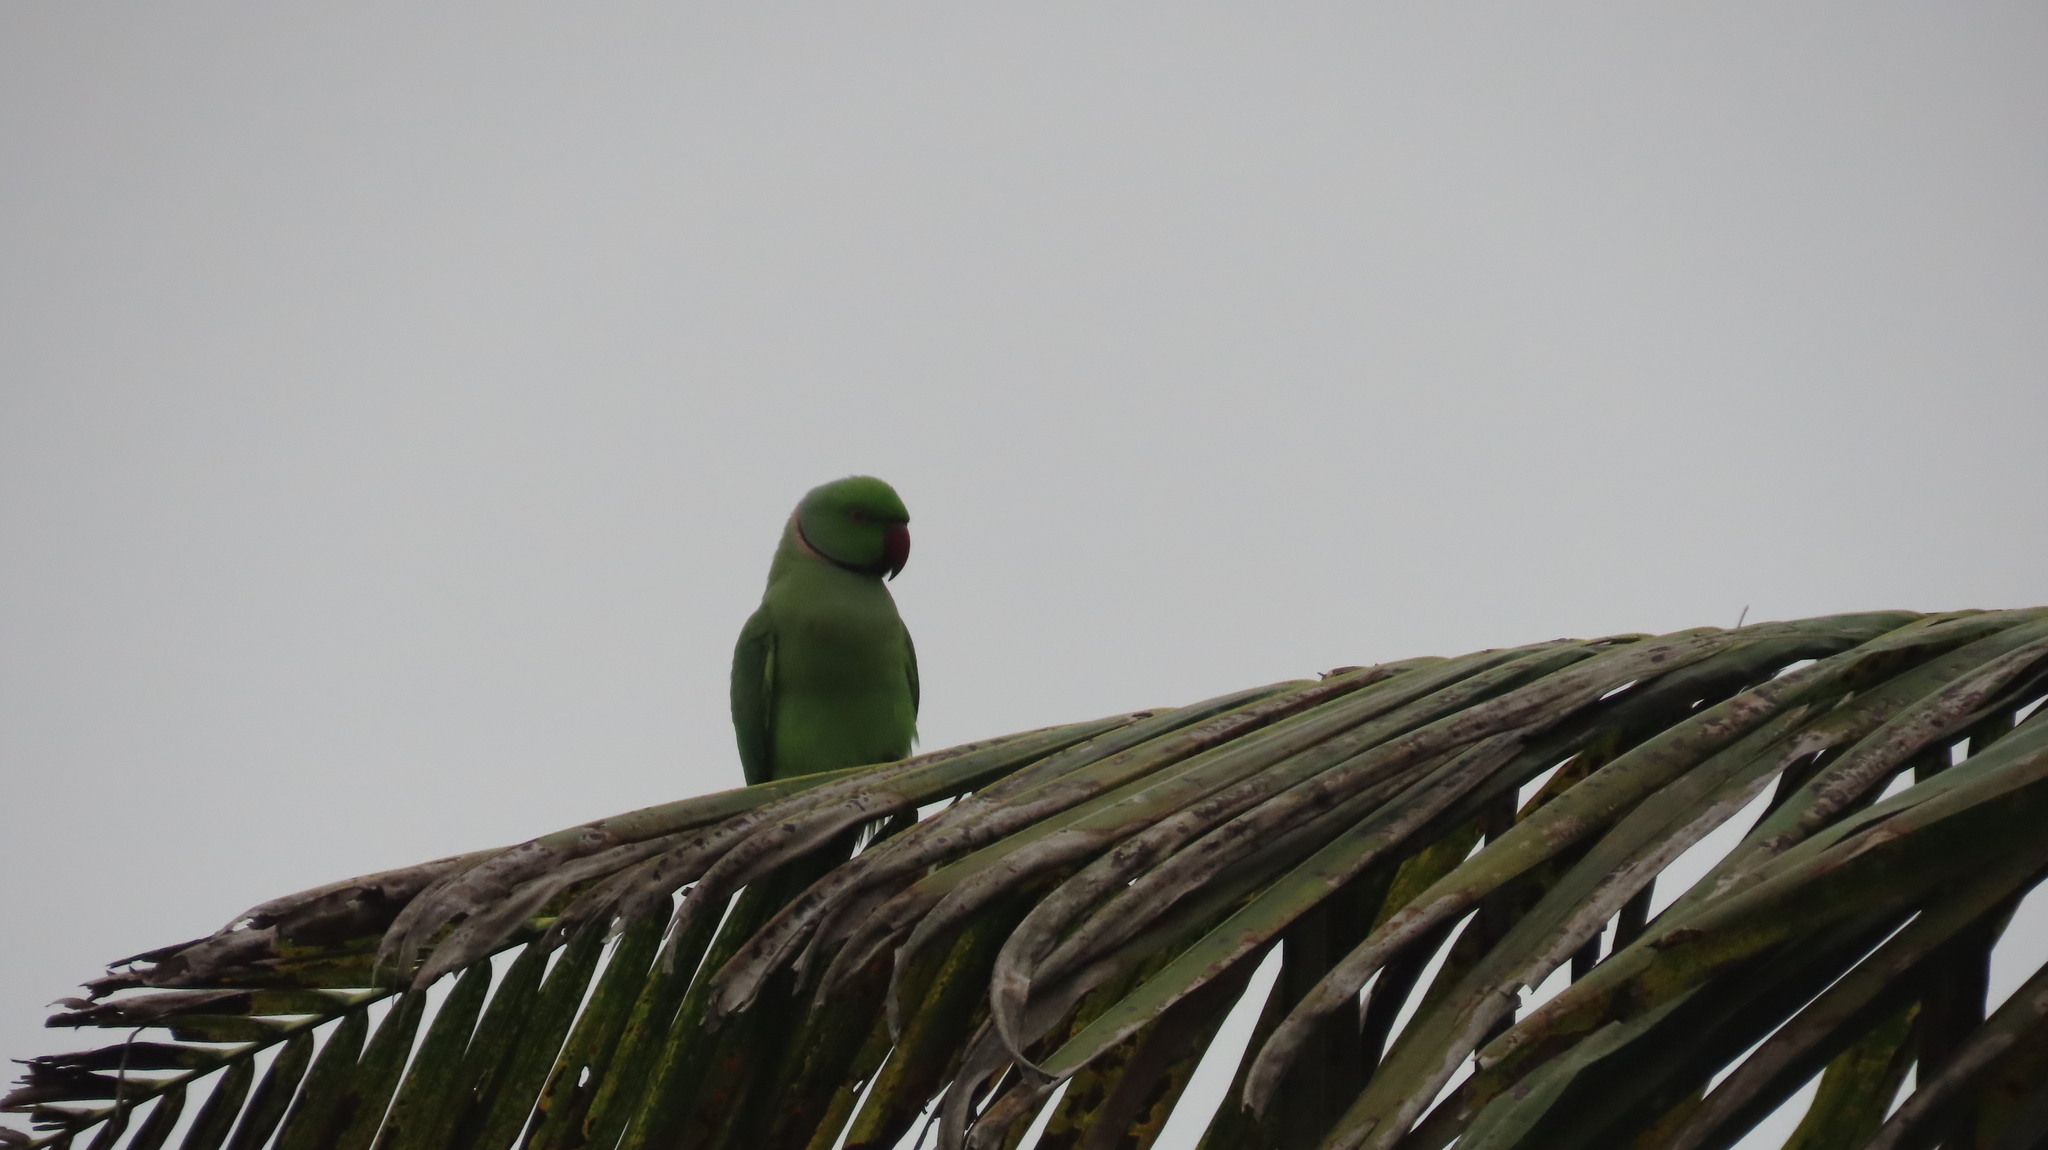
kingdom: Animalia
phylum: Chordata
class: Aves
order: Psittaciformes
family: Psittacidae
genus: Psittacula
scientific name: Psittacula krameri
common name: Rose-ringed parakeet
